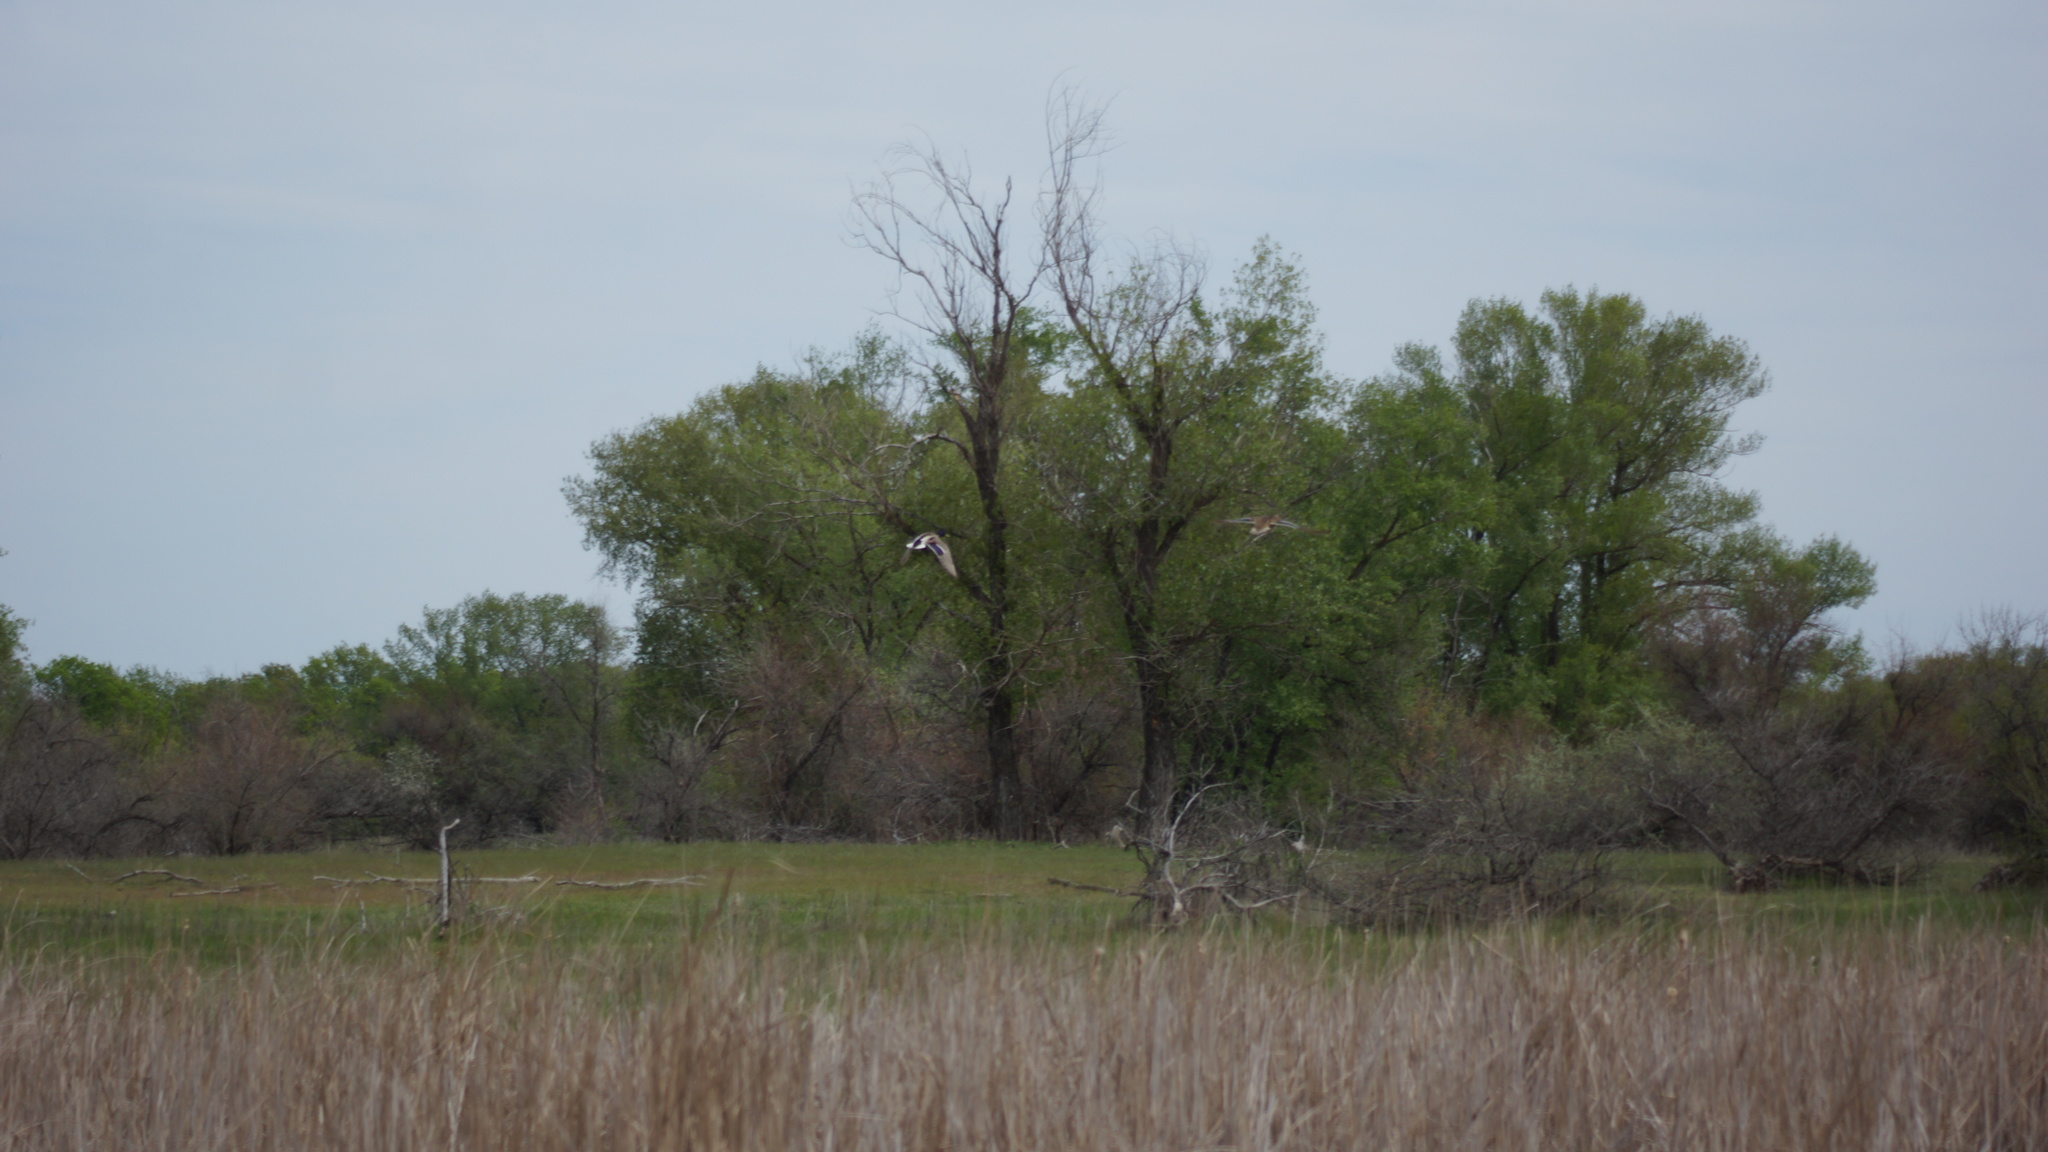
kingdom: Animalia
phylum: Chordata
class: Aves
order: Anseriformes
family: Anatidae
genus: Anas
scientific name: Anas platyrhynchos
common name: Mallard
